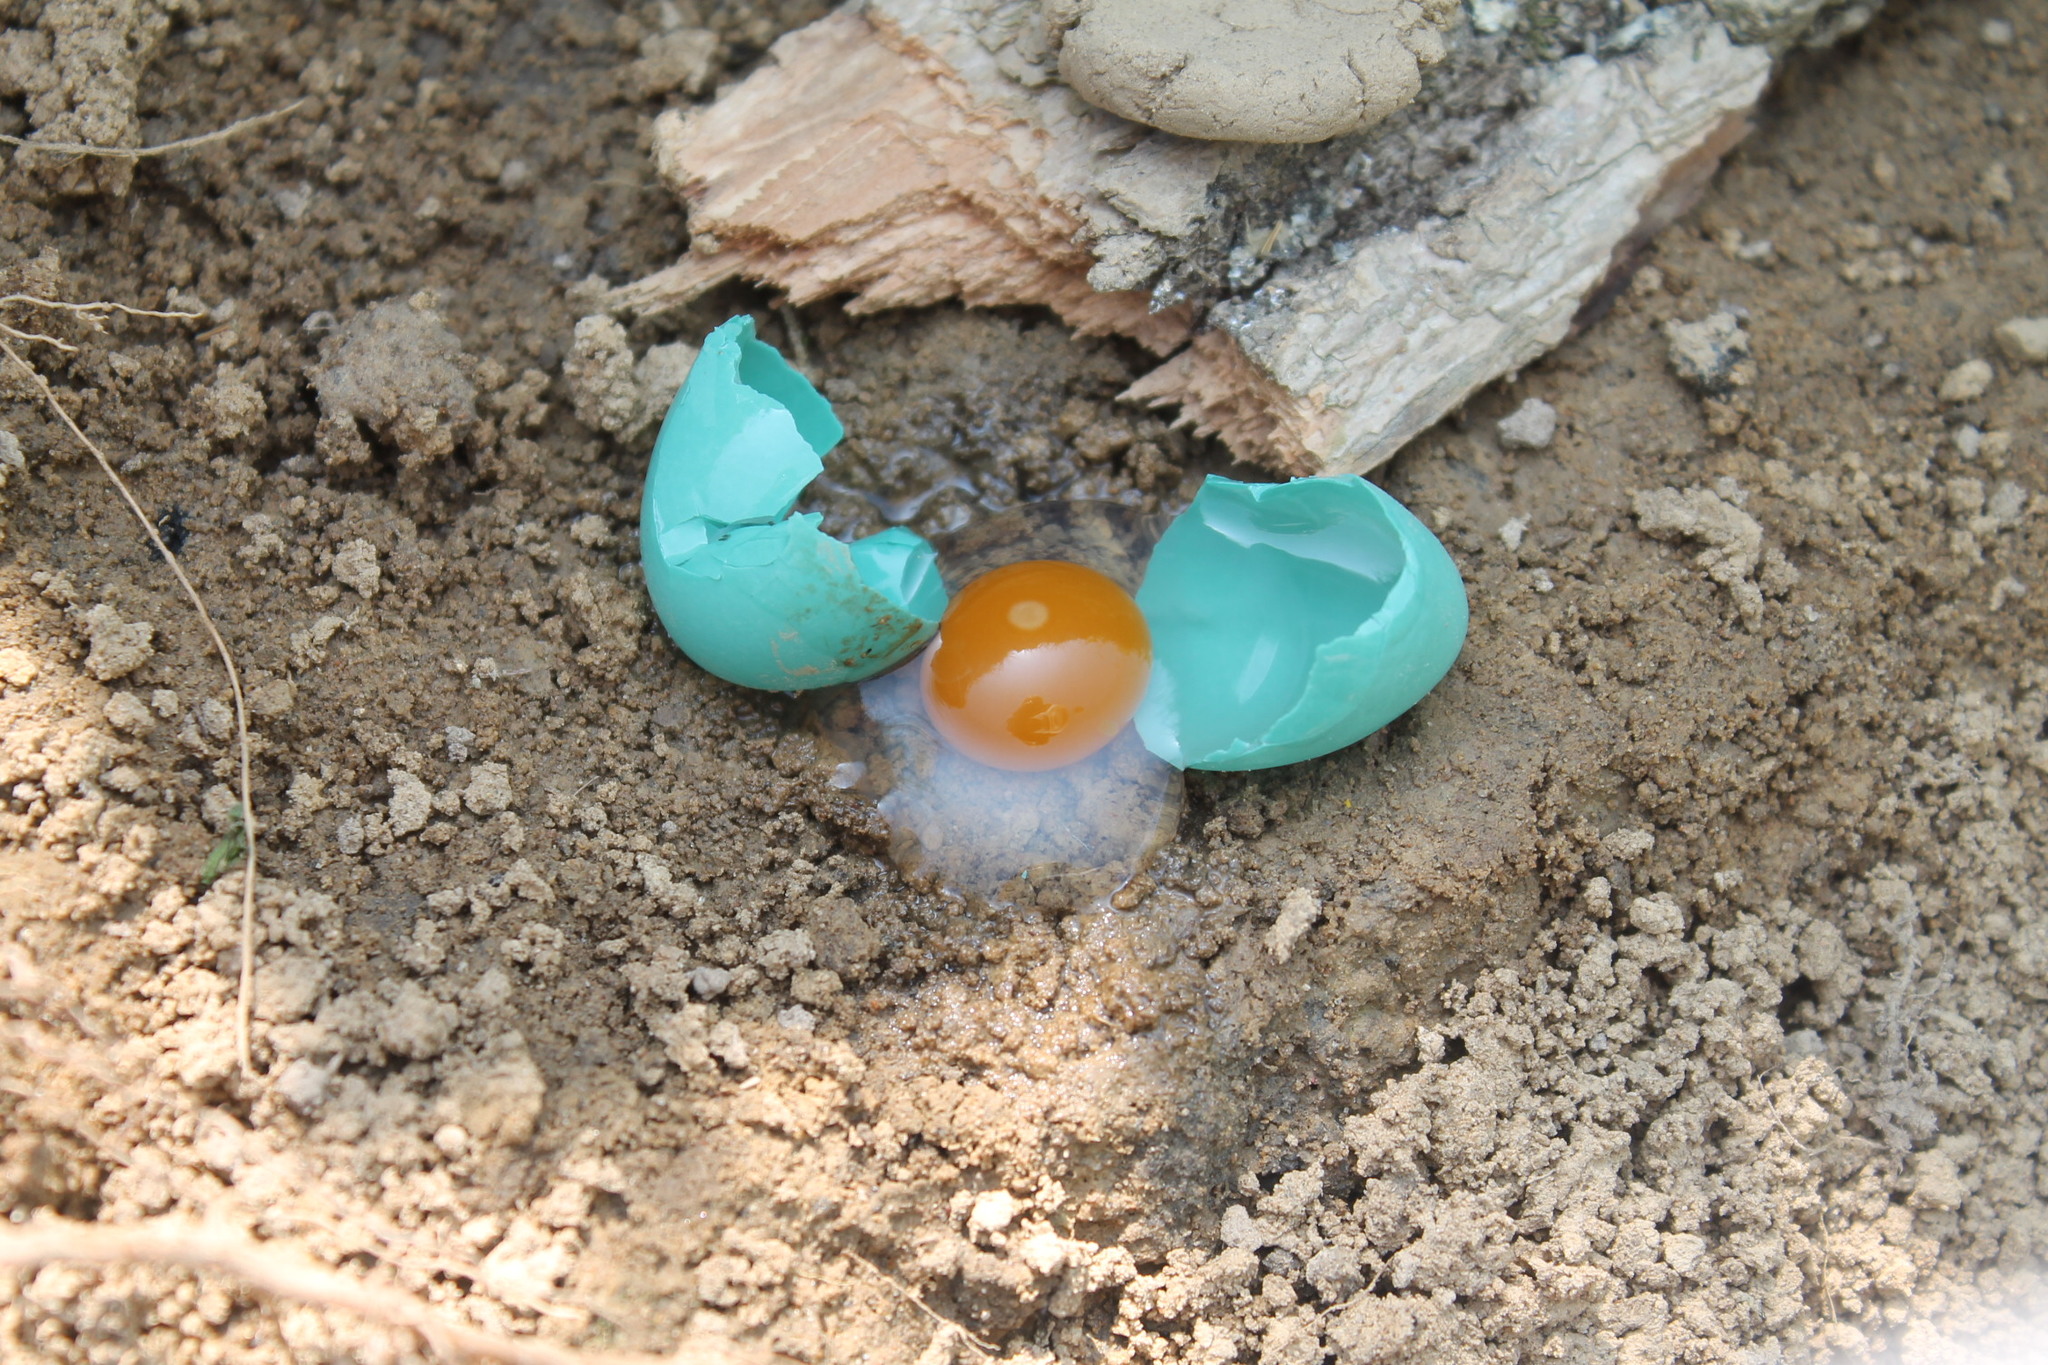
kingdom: Animalia
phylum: Chordata
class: Aves
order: Passeriformes
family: Turdidae
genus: Turdus
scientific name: Turdus migratorius
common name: American robin
